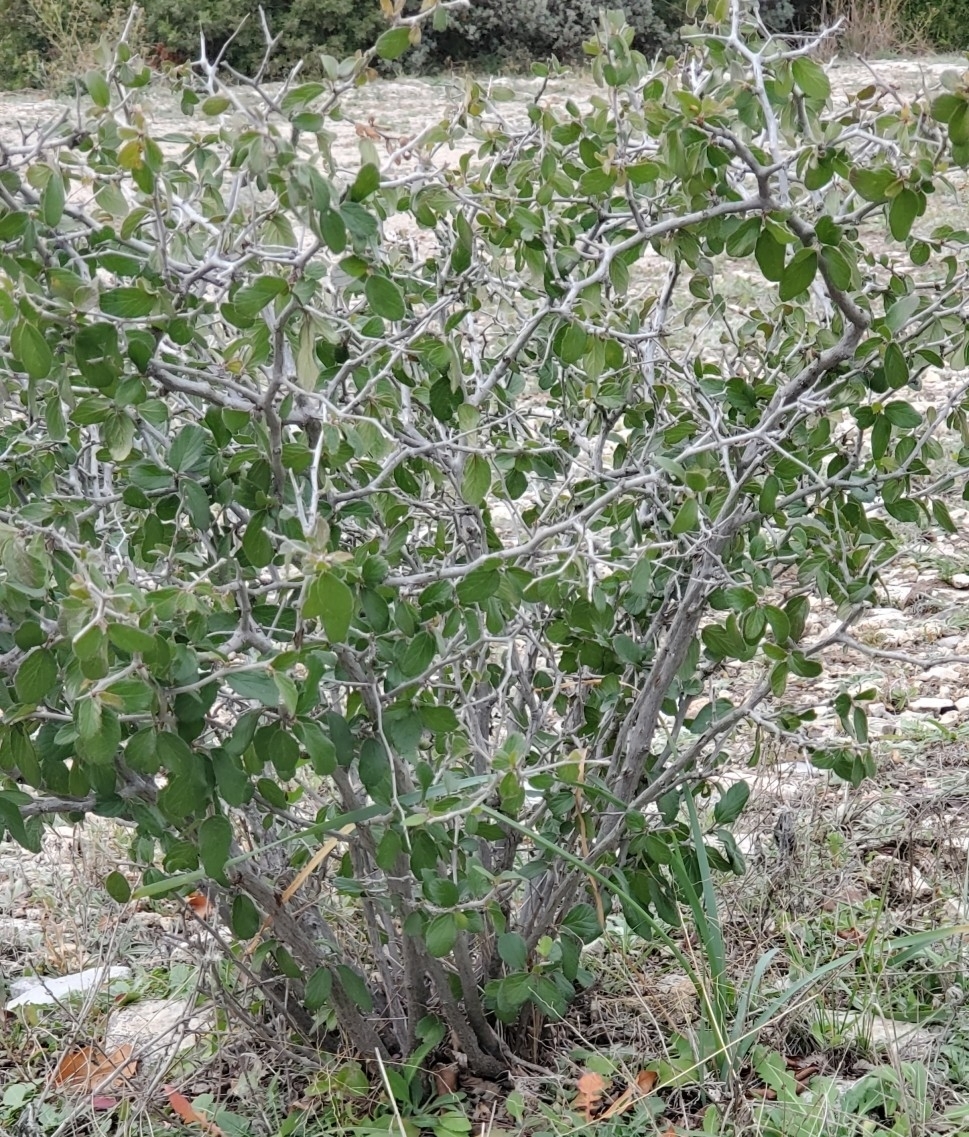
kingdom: Plantae
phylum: Tracheophyta
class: Magnoliopsida
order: Rosales
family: Rhamnaceae
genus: Colubrina
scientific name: Colubrina texensis
